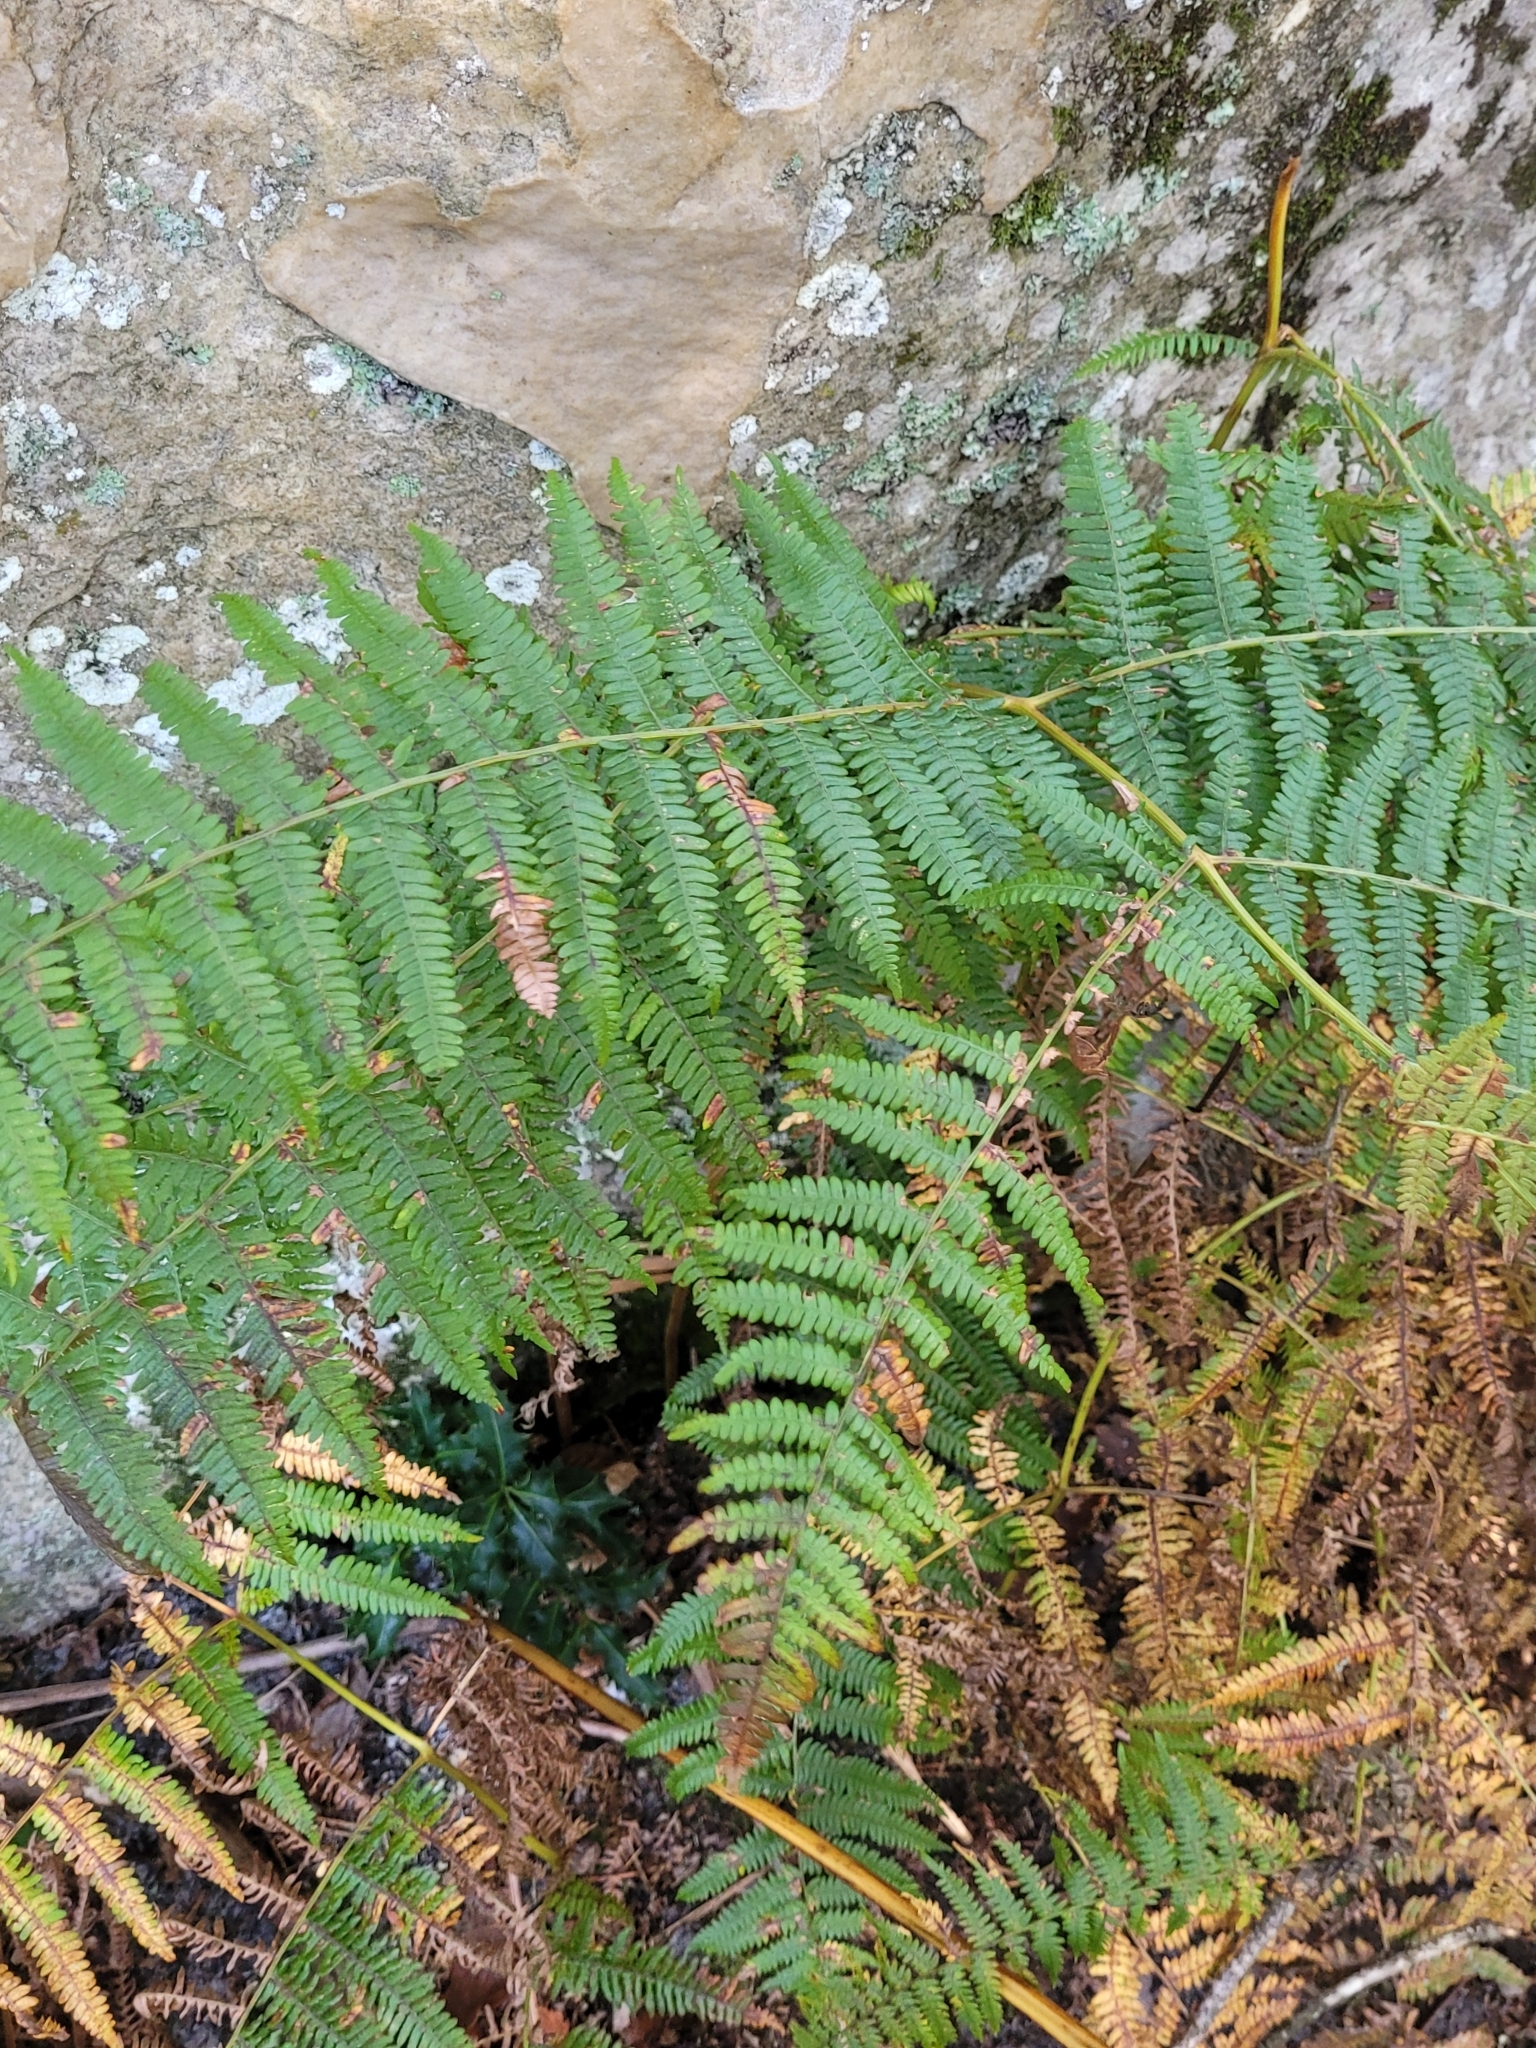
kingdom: Plantae
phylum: Tracheophyta
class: Polypodiopsida
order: Polypodiales
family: Dennstaedtiaceae
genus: Pteridium
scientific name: Pteridium aquilinum
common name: Bracken
